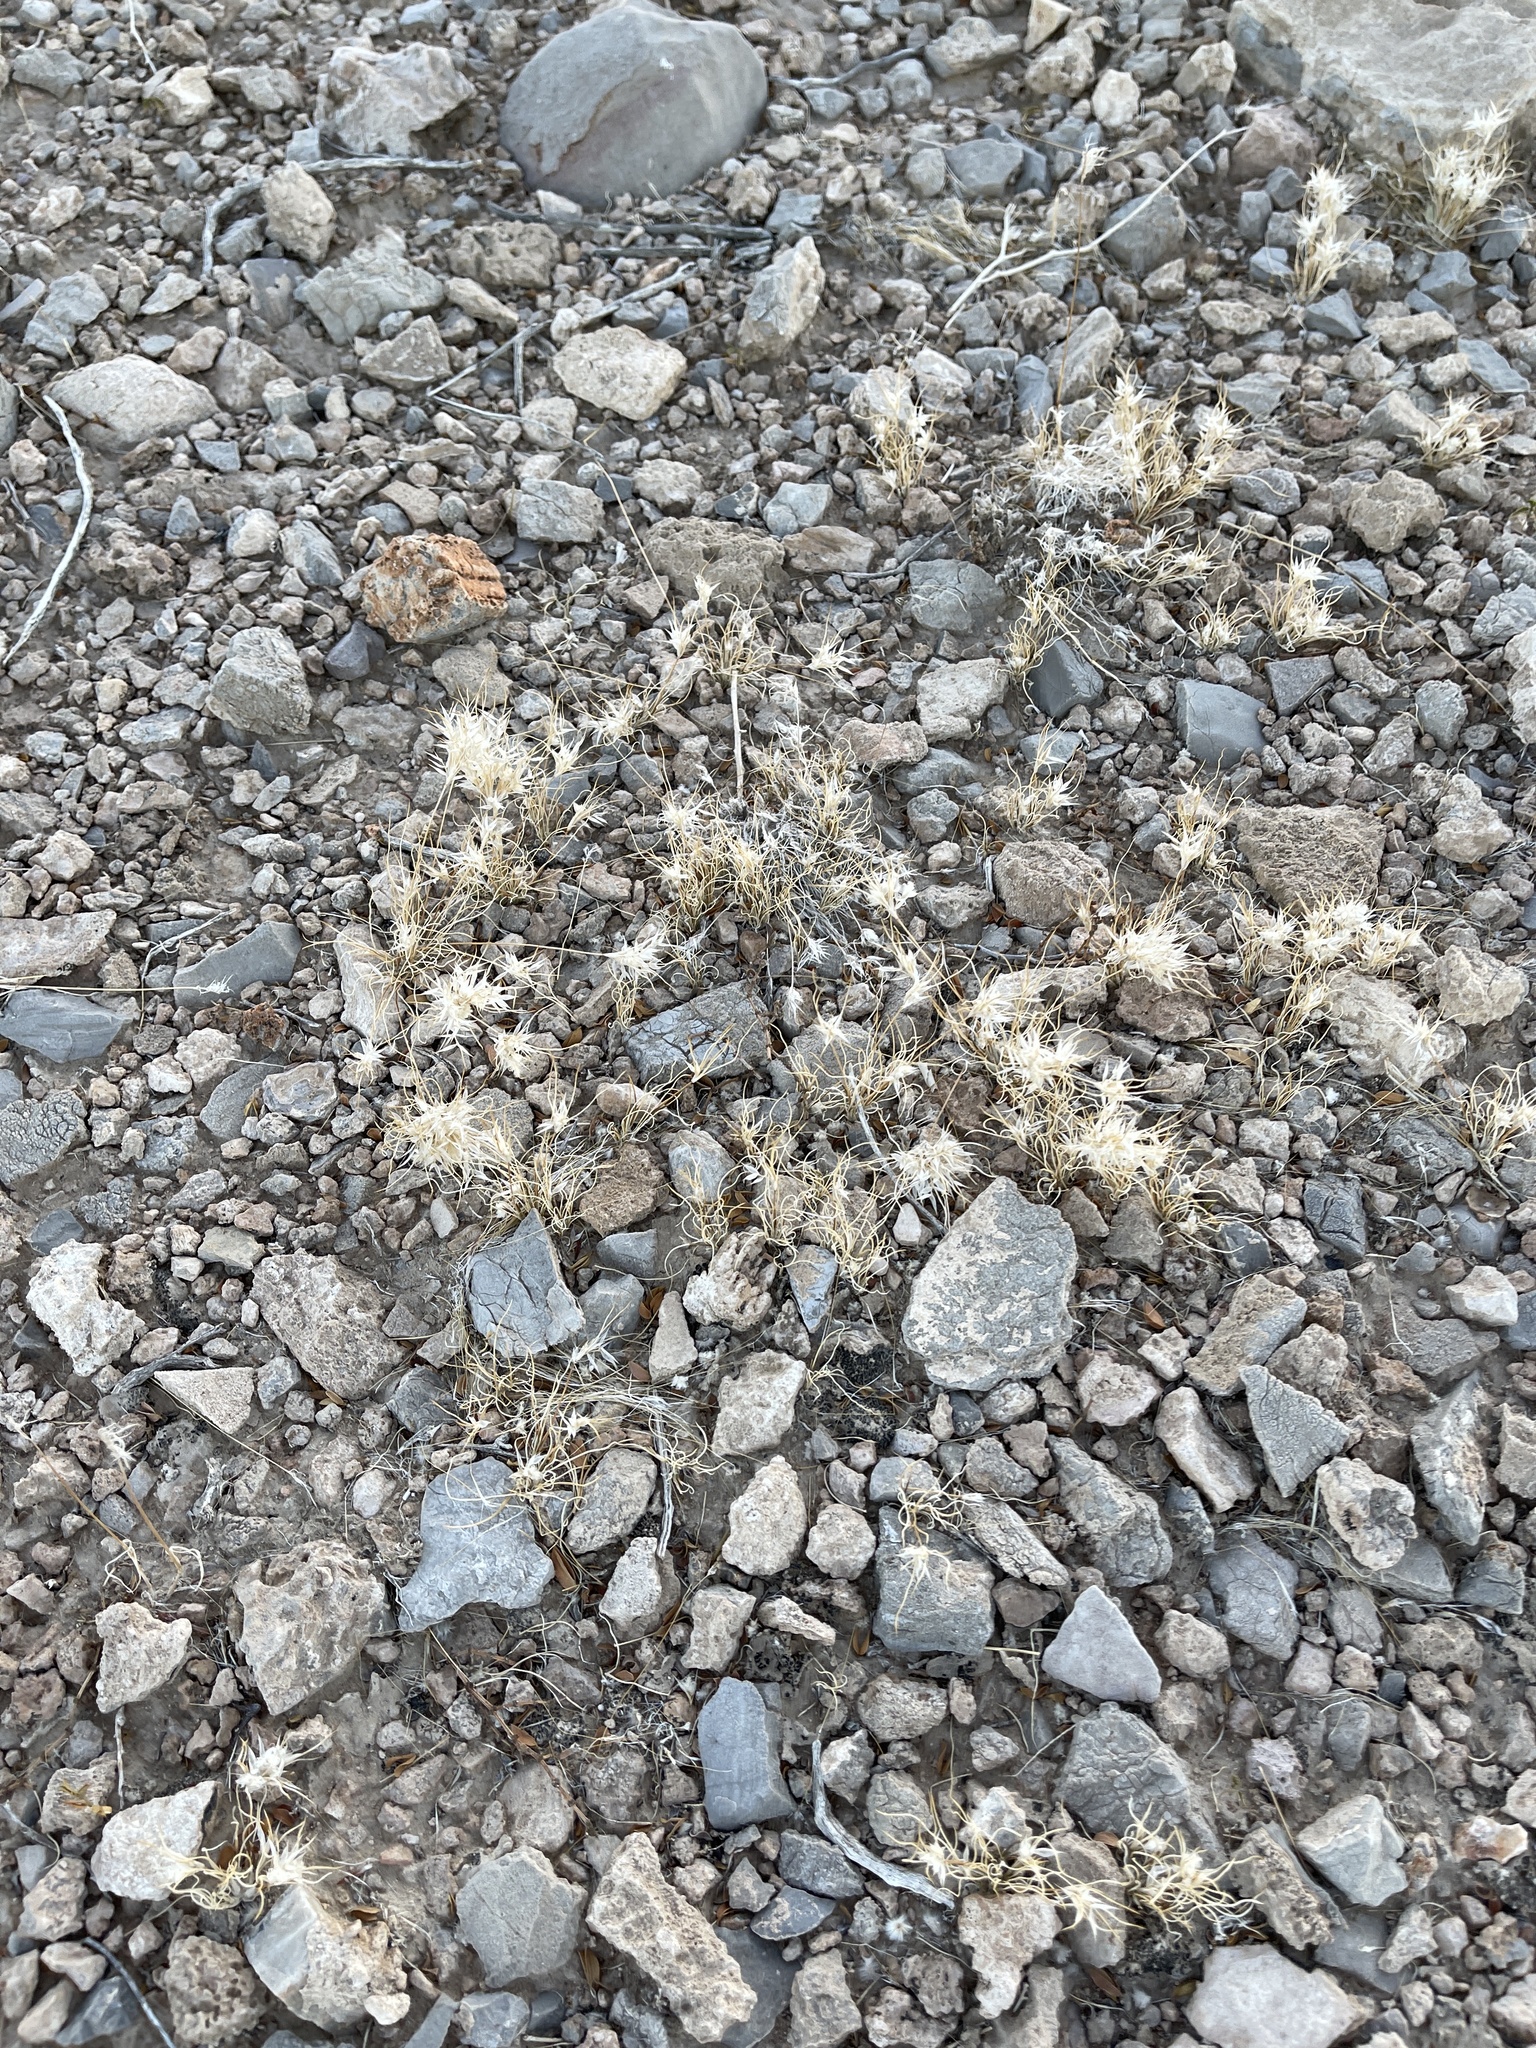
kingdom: Plantae
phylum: Tracheophyta
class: Liliopsida
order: Poales
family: Poaceae
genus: Dasyochloa
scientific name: Dasyochloa pulchella
